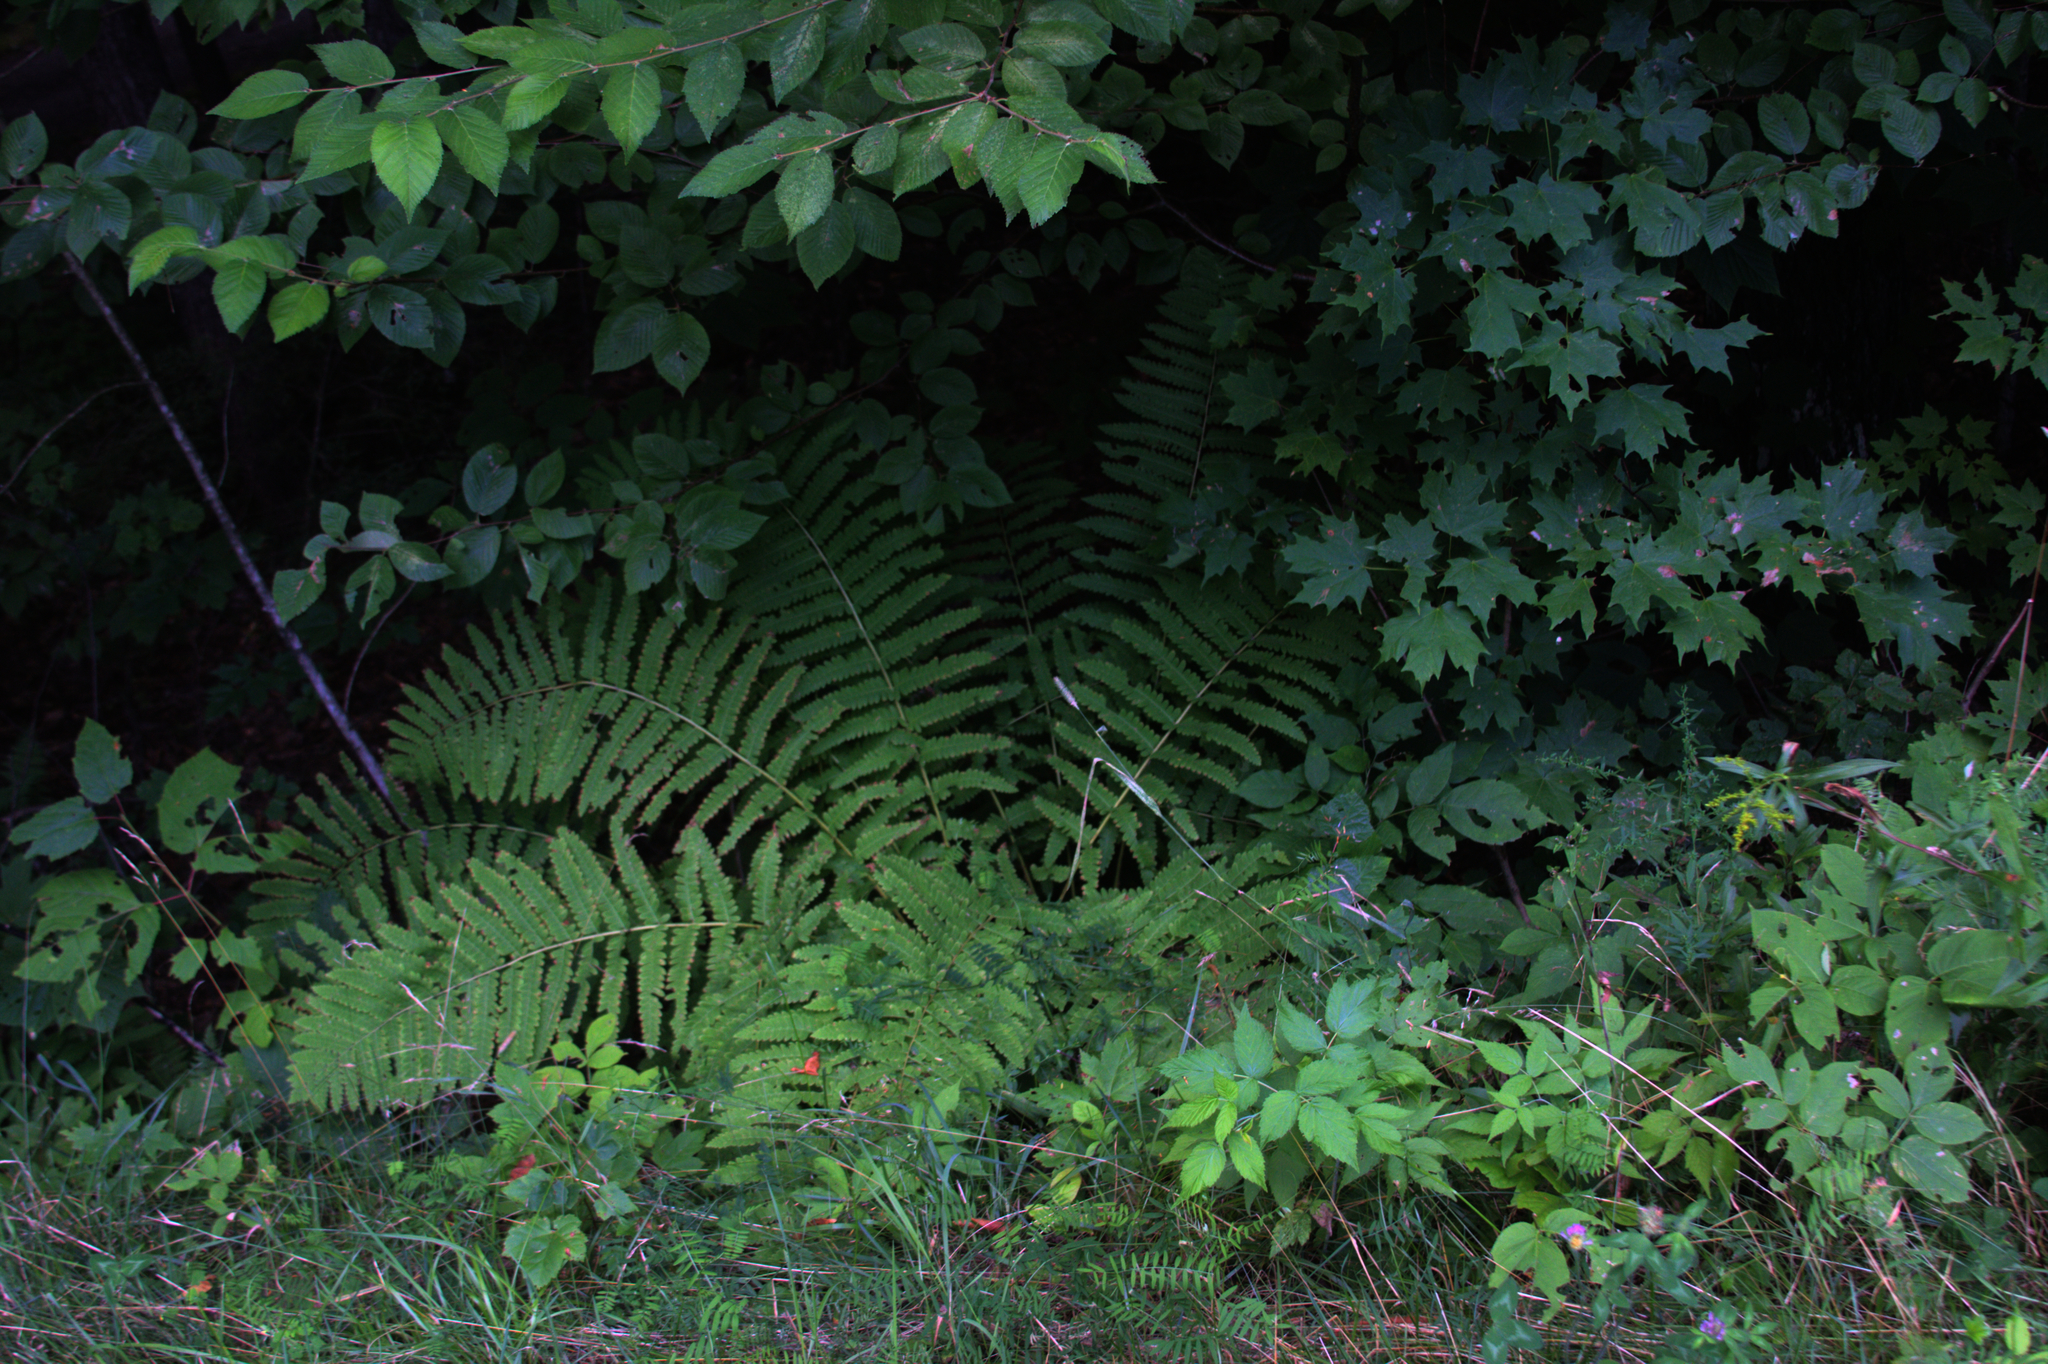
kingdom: Plantae
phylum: Tracheophyta
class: Magnoliopsida
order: Sapindales
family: Sapindaceae
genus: Acer
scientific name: Acer rubrum
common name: Red maple
